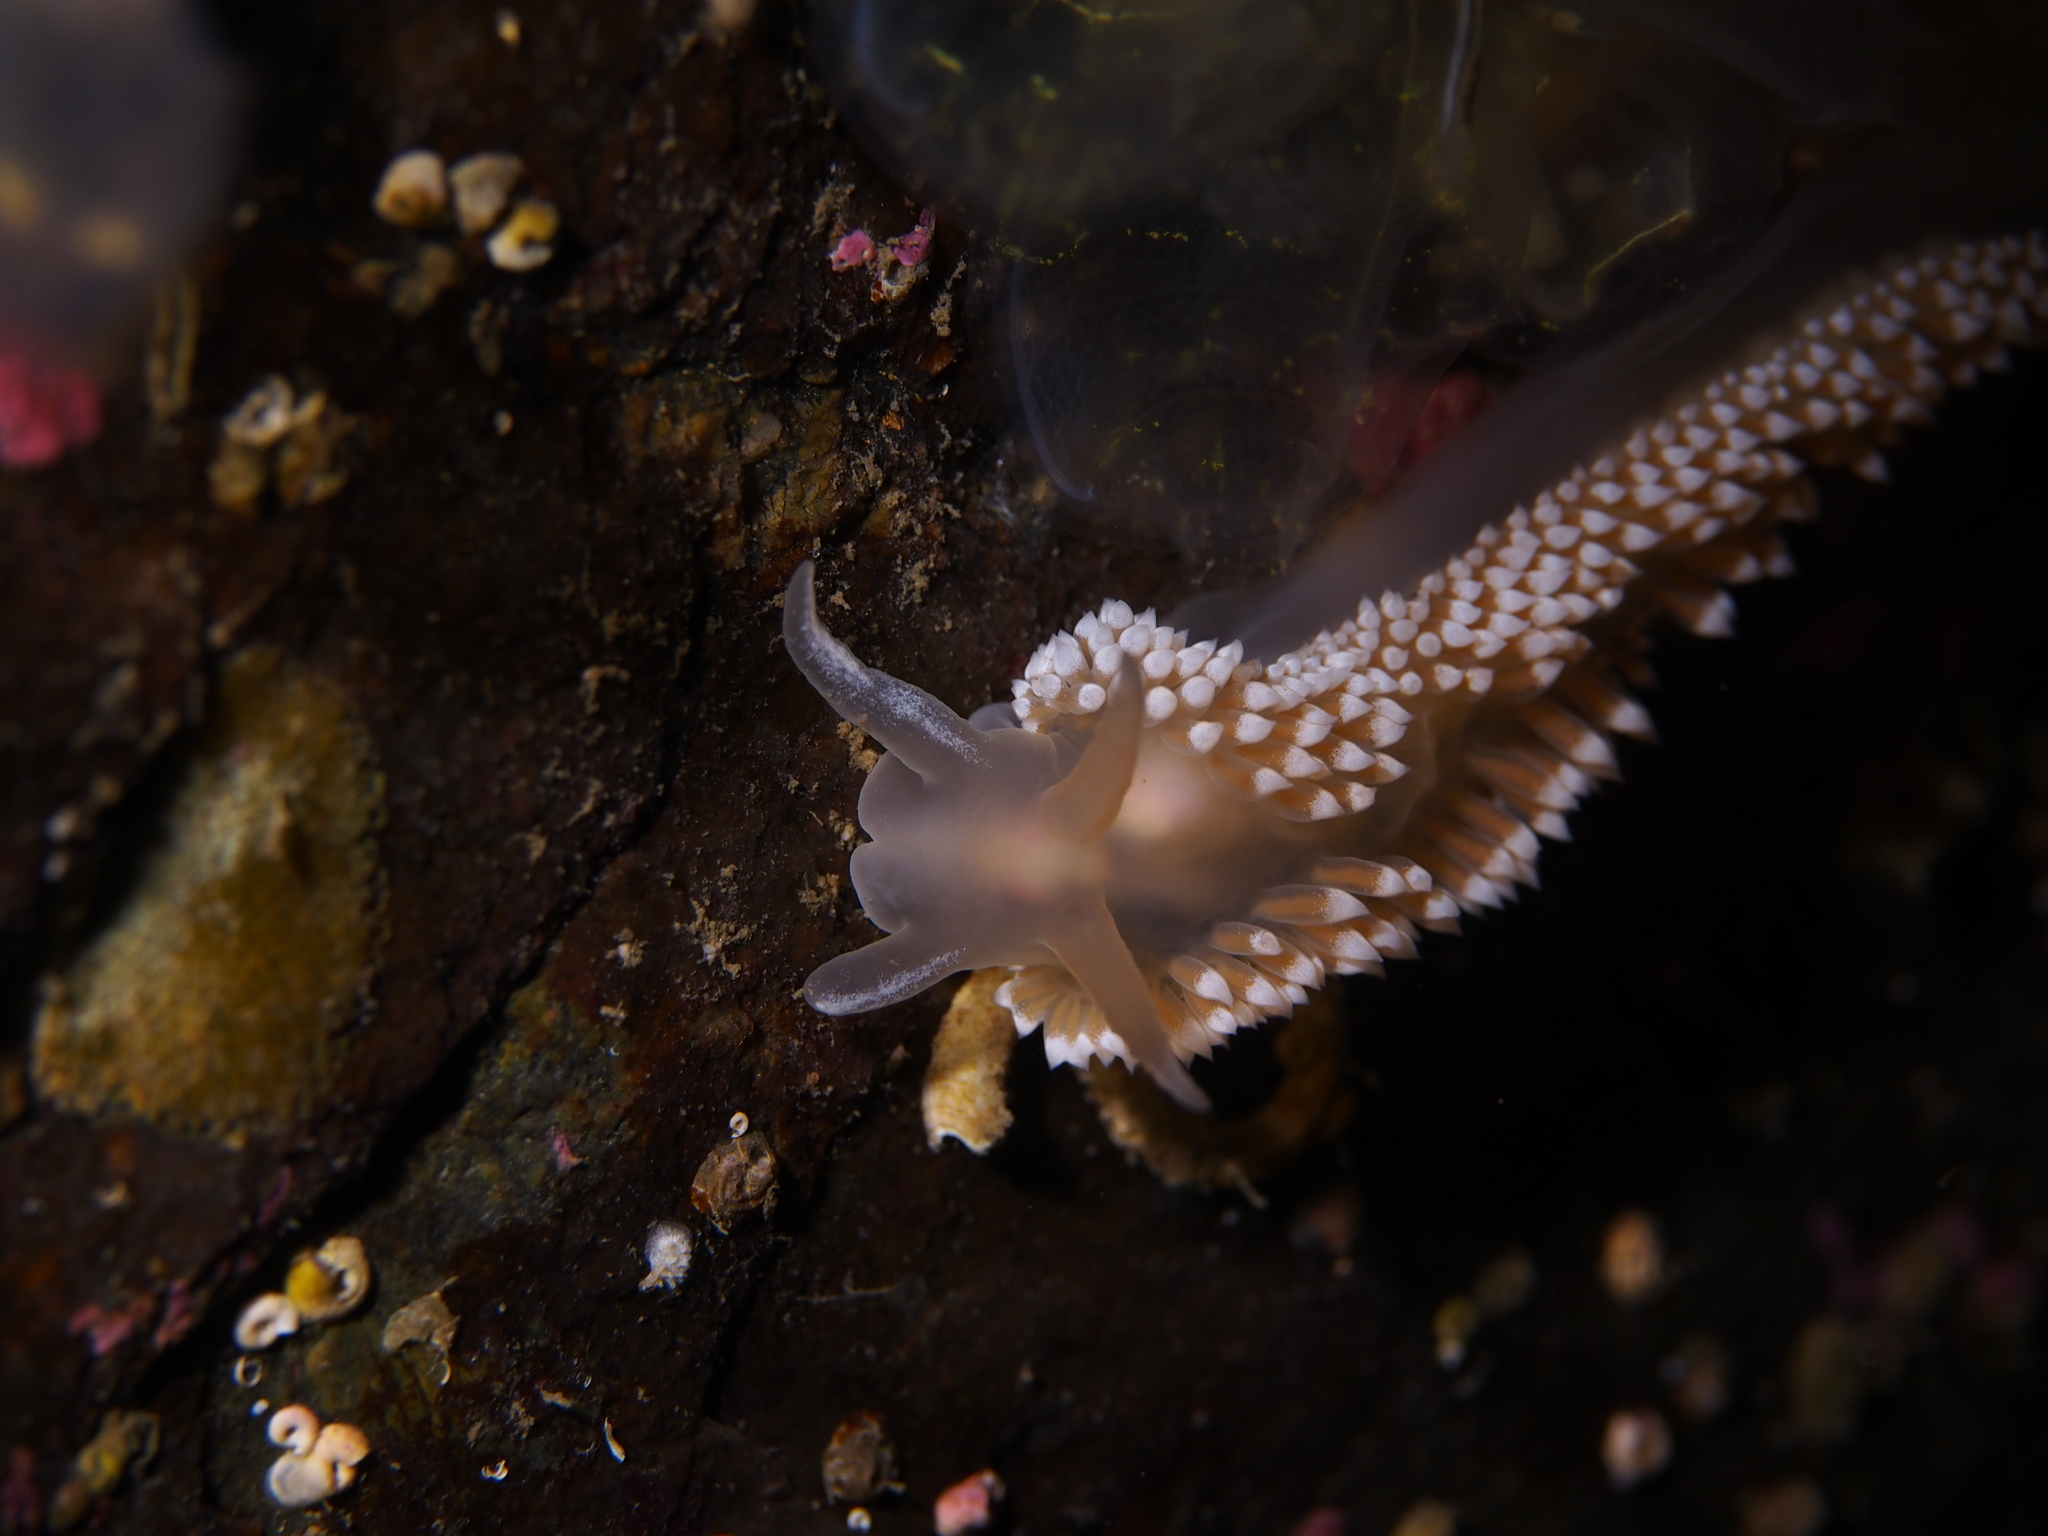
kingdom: Animalia
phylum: Mollusca
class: Gastropoda
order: Nudibranchia
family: Coryphellidae
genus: Coryphella
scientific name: Coryphella verrucosa
